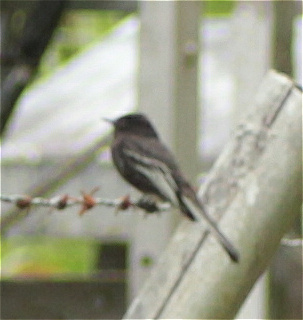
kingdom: Animalia
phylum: Chordata
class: Aves
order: Passeriformes
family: Tyrannidae
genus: Sayornis
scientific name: Sayornis nigricans
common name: Black phoebe
